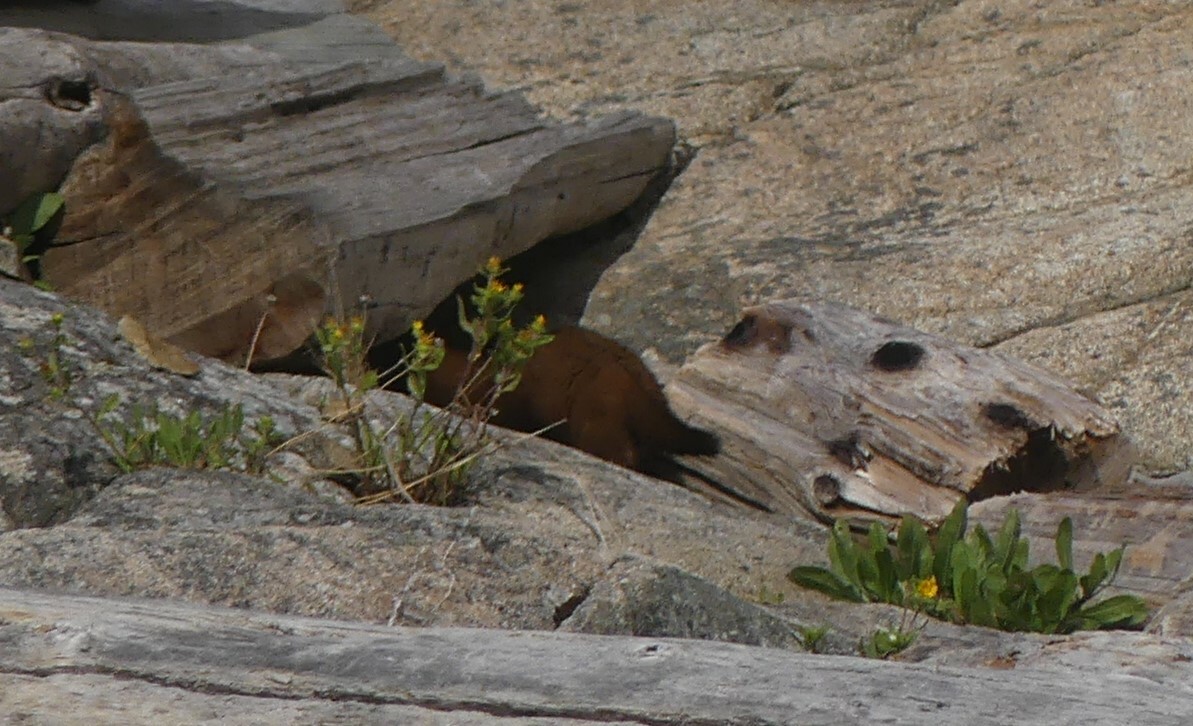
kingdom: Animalia
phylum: Chordata
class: Mammalia
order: Carnivora
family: Mustelidae
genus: Mustela
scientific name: Mustela
